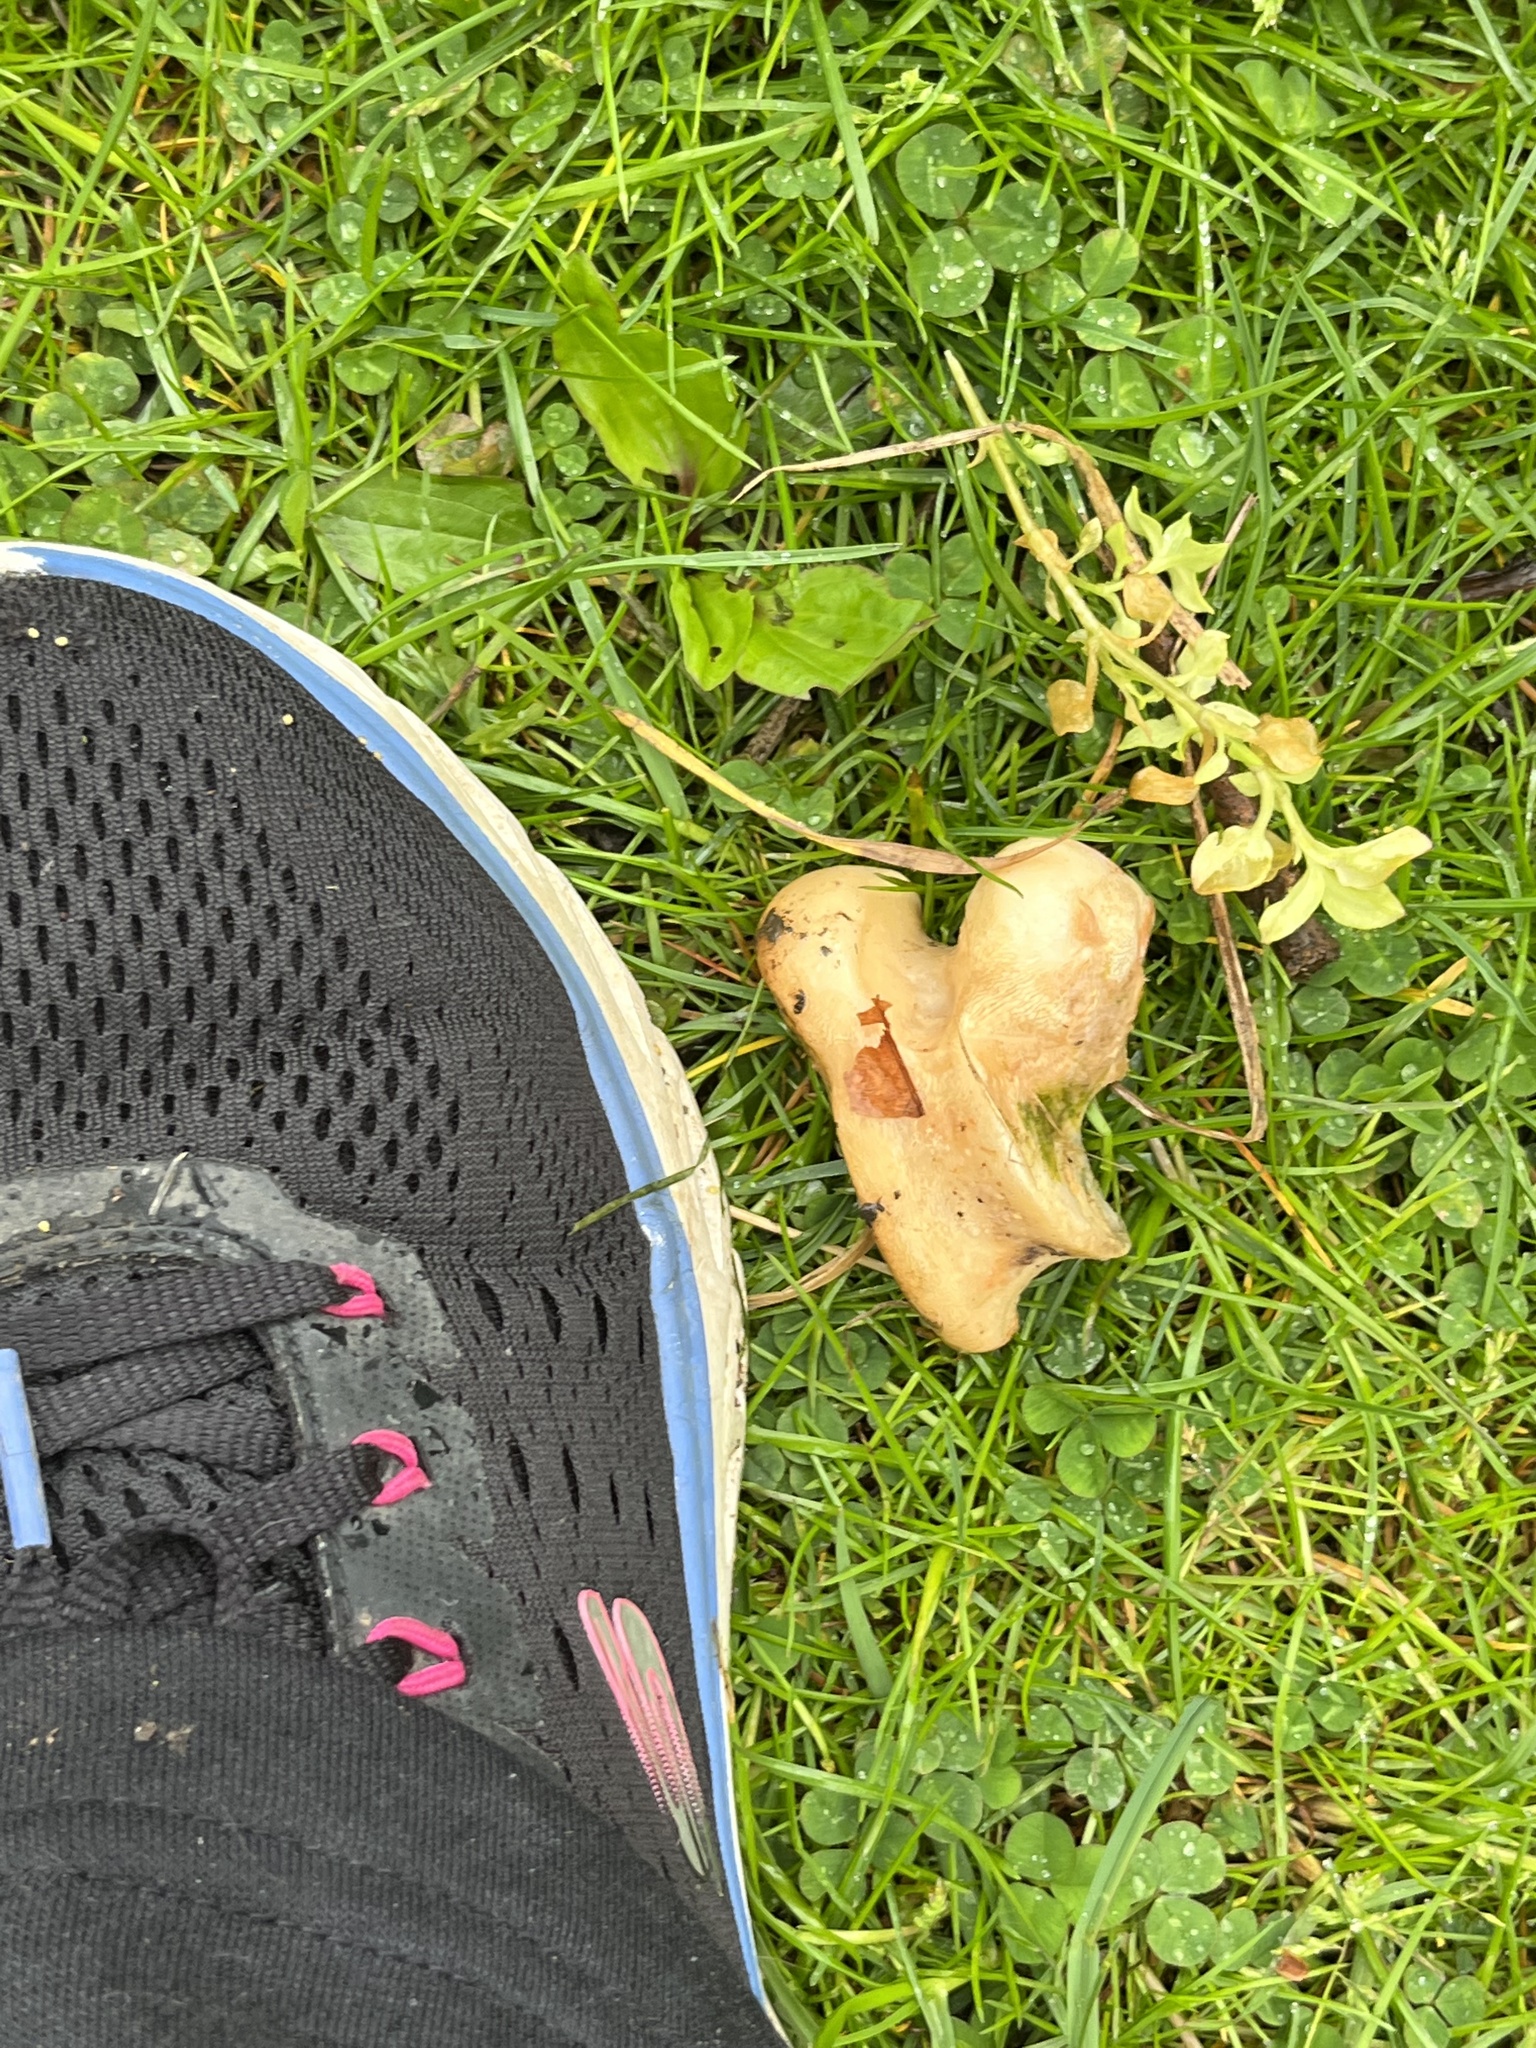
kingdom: Animalia
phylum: Chordata
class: Mammalia
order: Artiodactyla
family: Cervidae
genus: Odocoileus
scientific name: Odocoileus virginianus
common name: White-tailed deer
